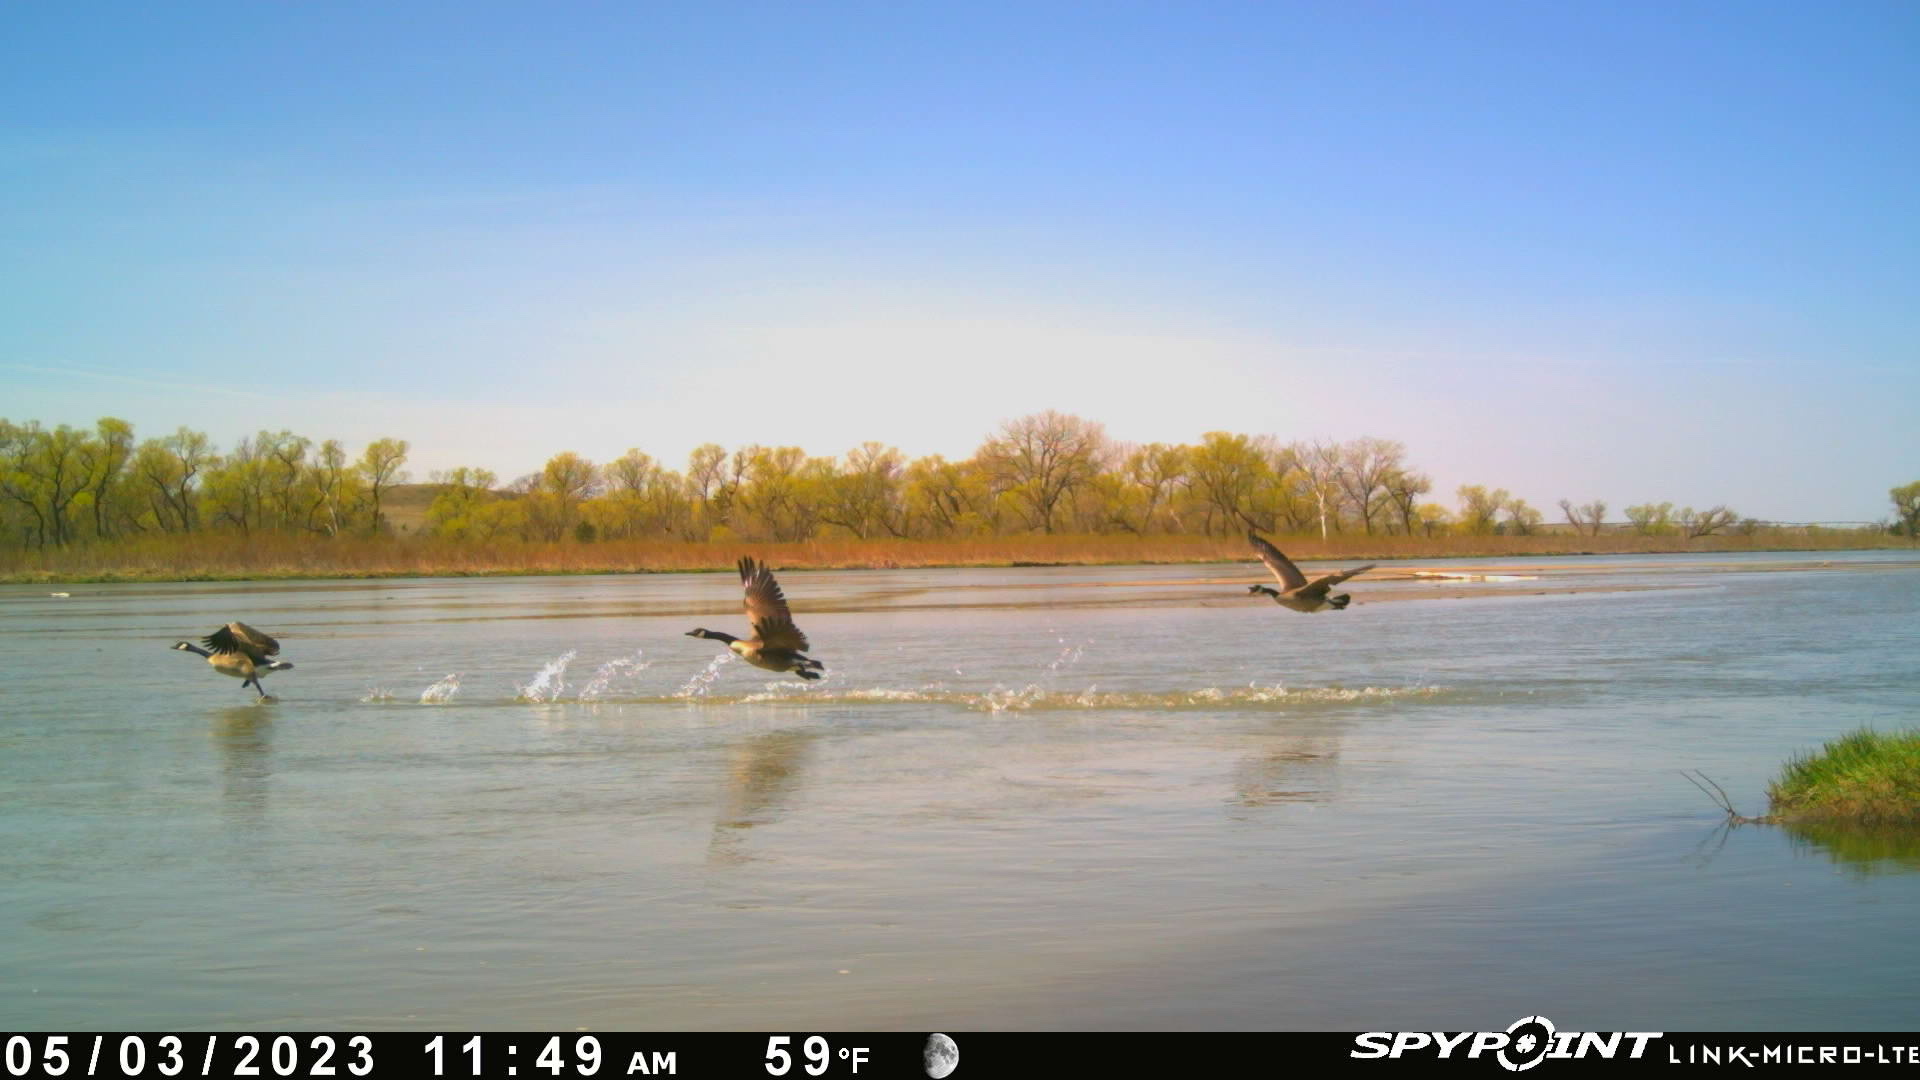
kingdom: Animalia
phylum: Chordata
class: Aves
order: Anseriformes
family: Anatidae
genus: Branta
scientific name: Branta canadensis
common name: Canada goose
